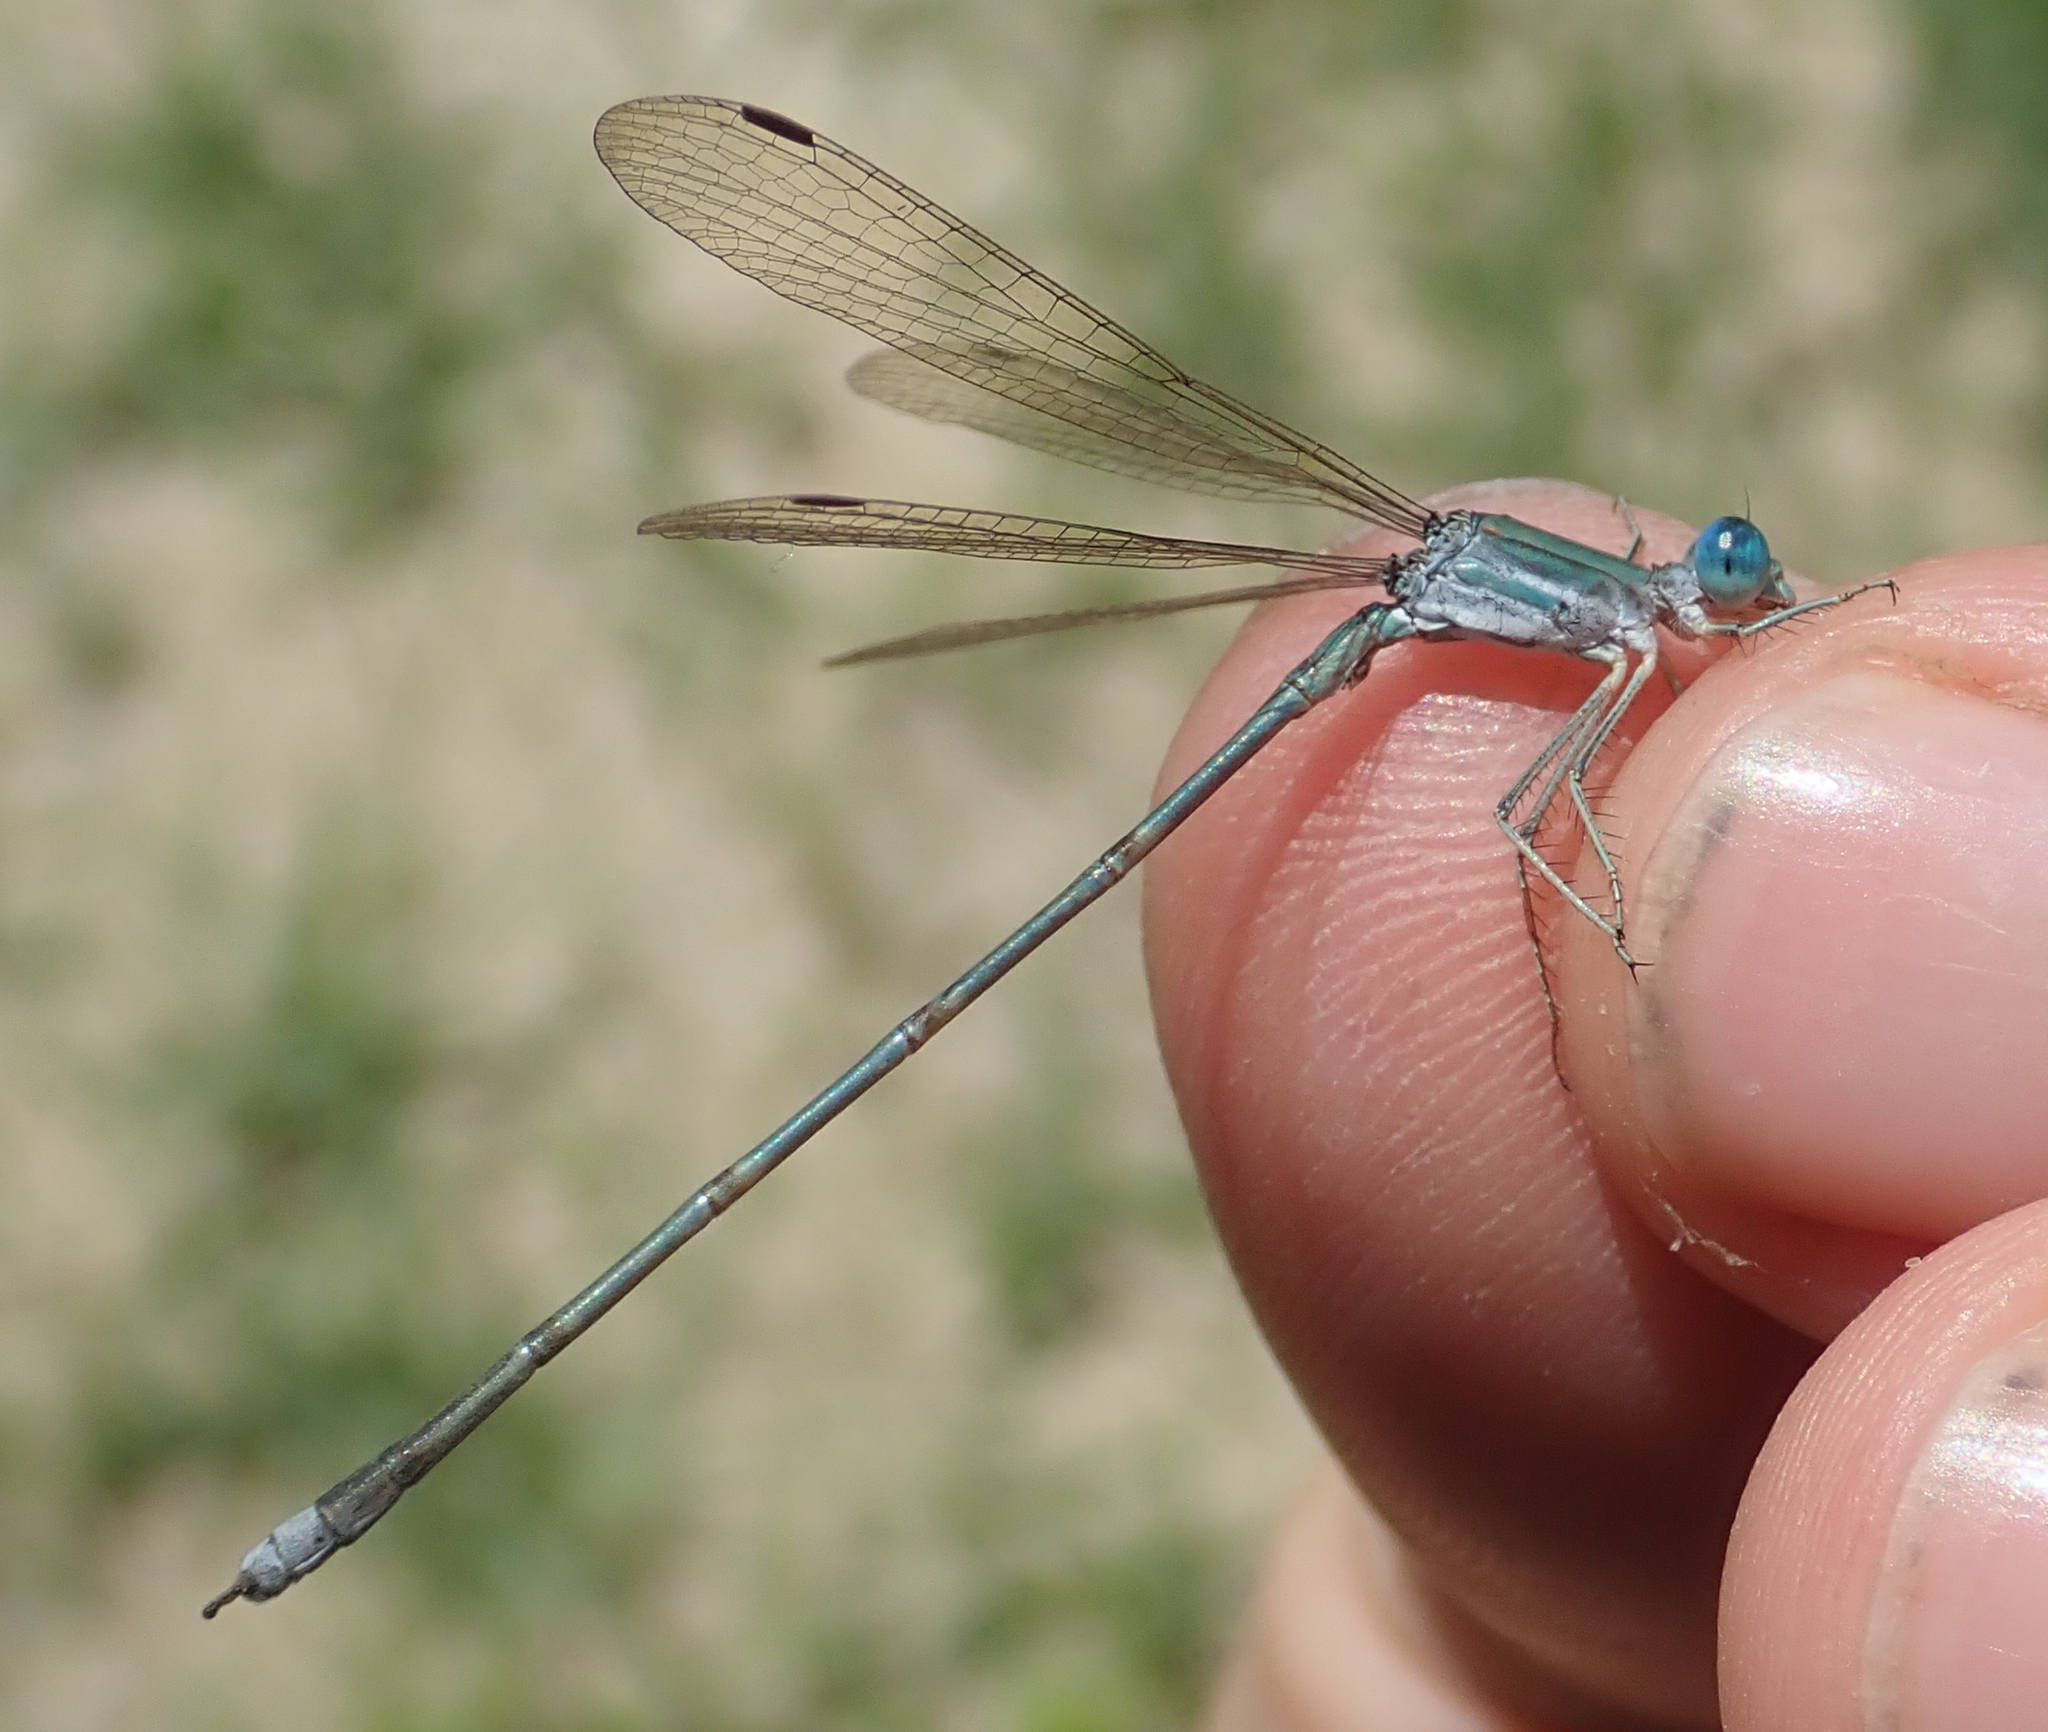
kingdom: Animalia
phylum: Arthropoda
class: Insecta
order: Odonata
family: Lestidae
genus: Lestes
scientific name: Lestes pallidus
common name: Pallid spreadwing
